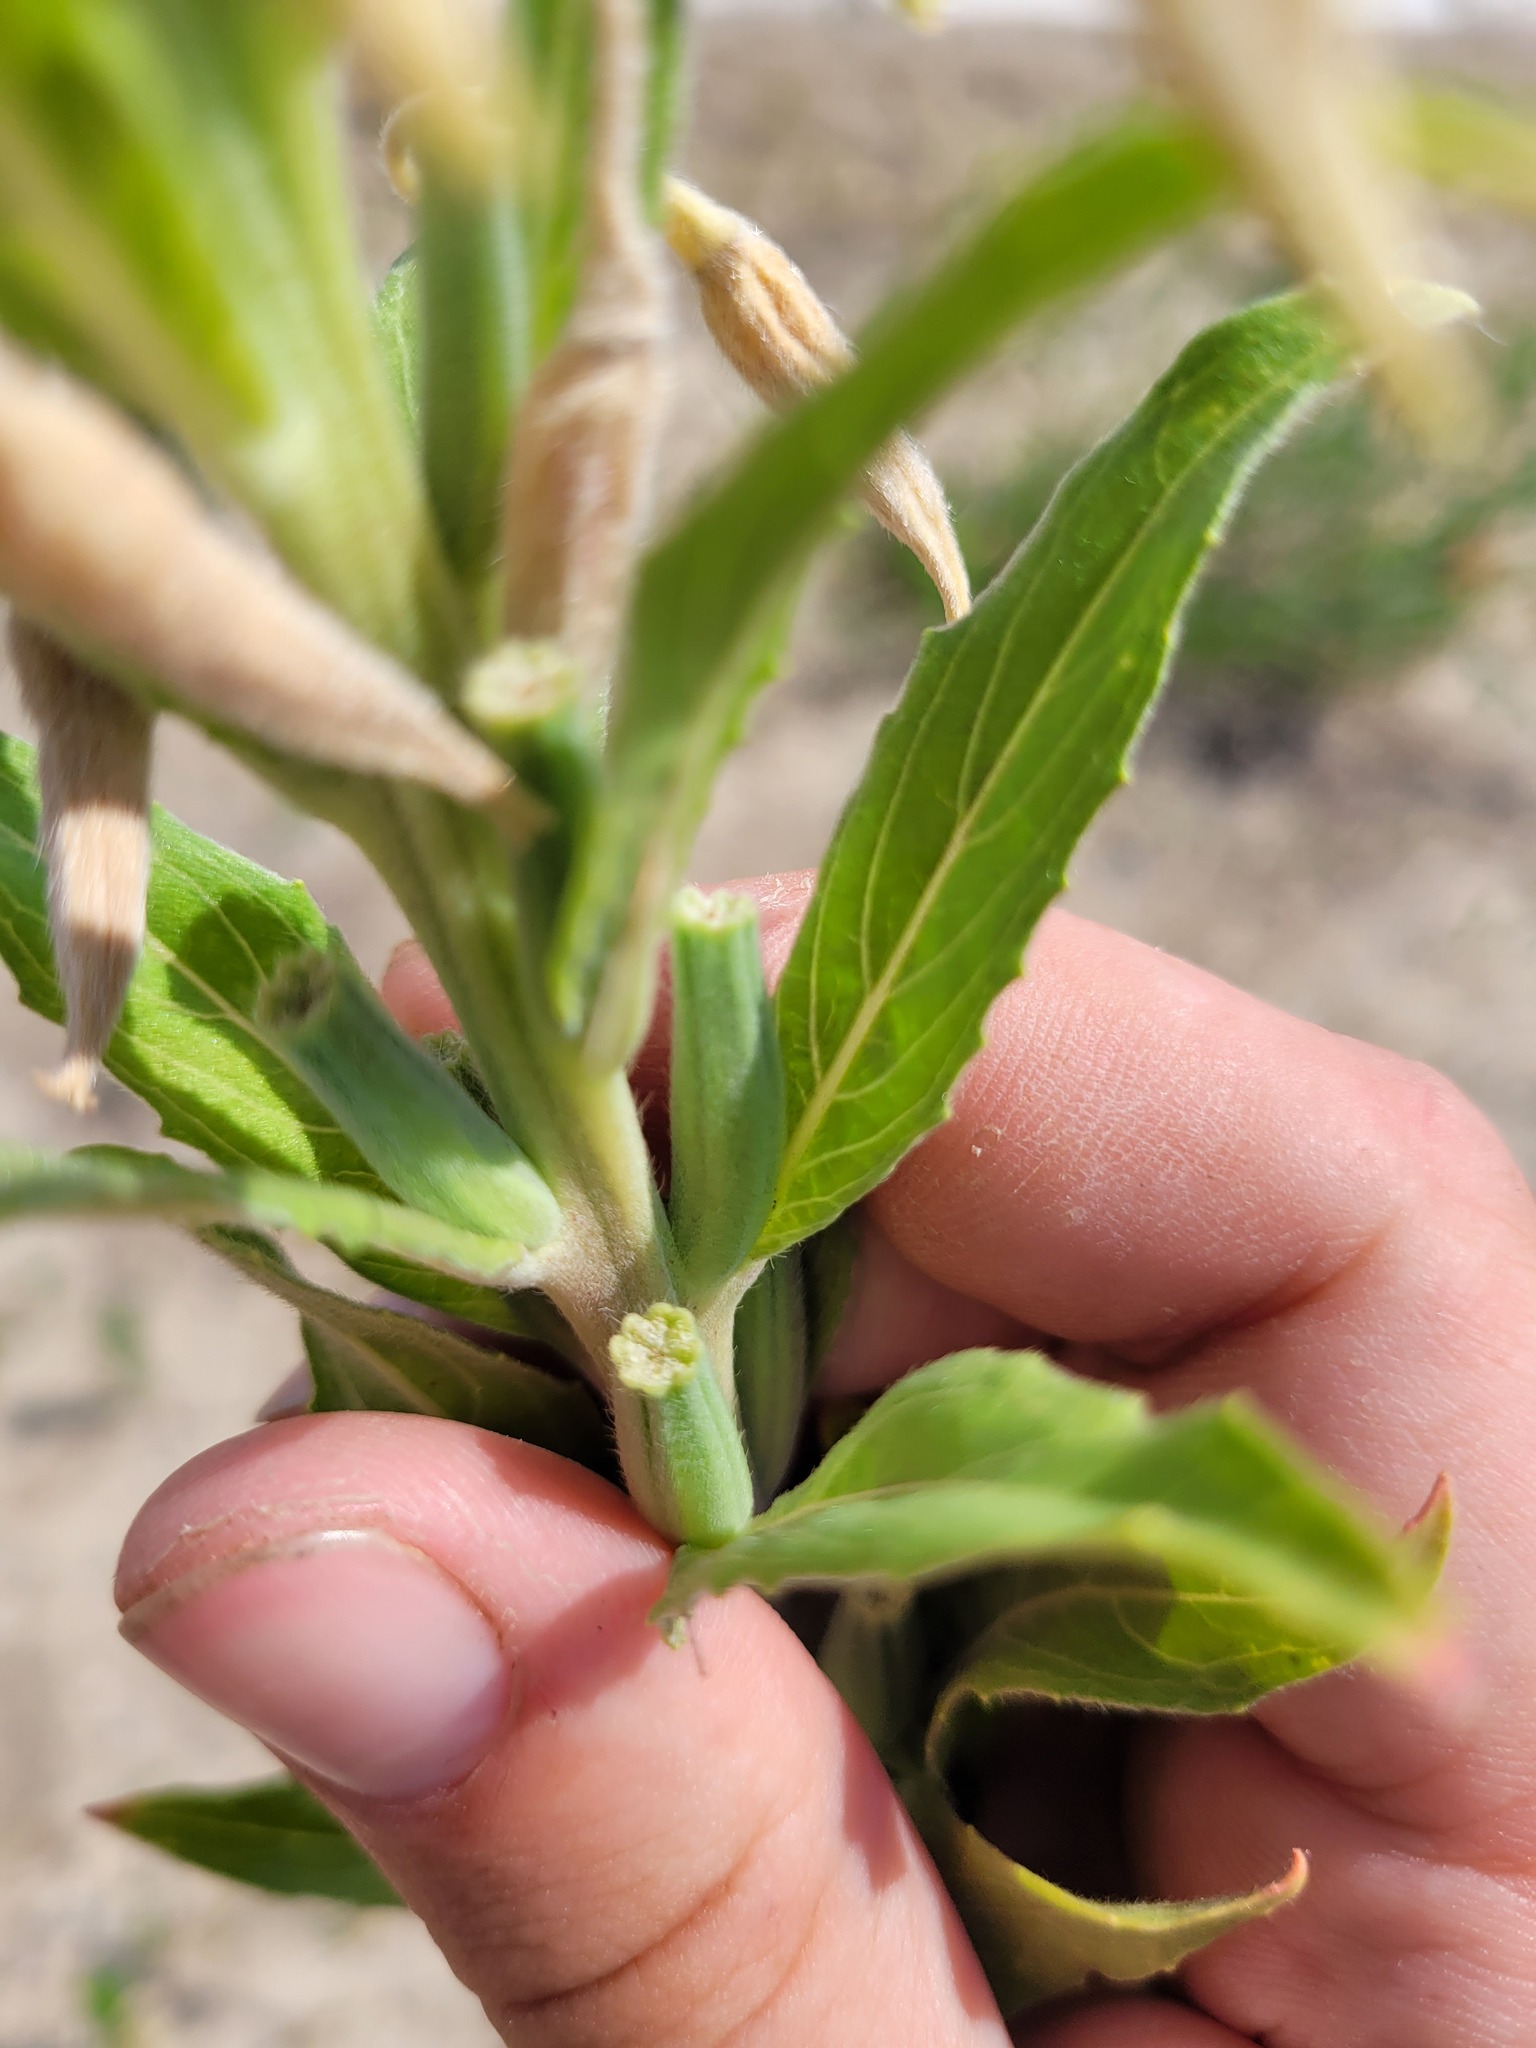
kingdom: Plantae
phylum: Tracheophyta
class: Magnoliopsida
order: Myrtales
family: Onagraceae
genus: Oenothera
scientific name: Oenothera villosa
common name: Hairy evening-primrose
